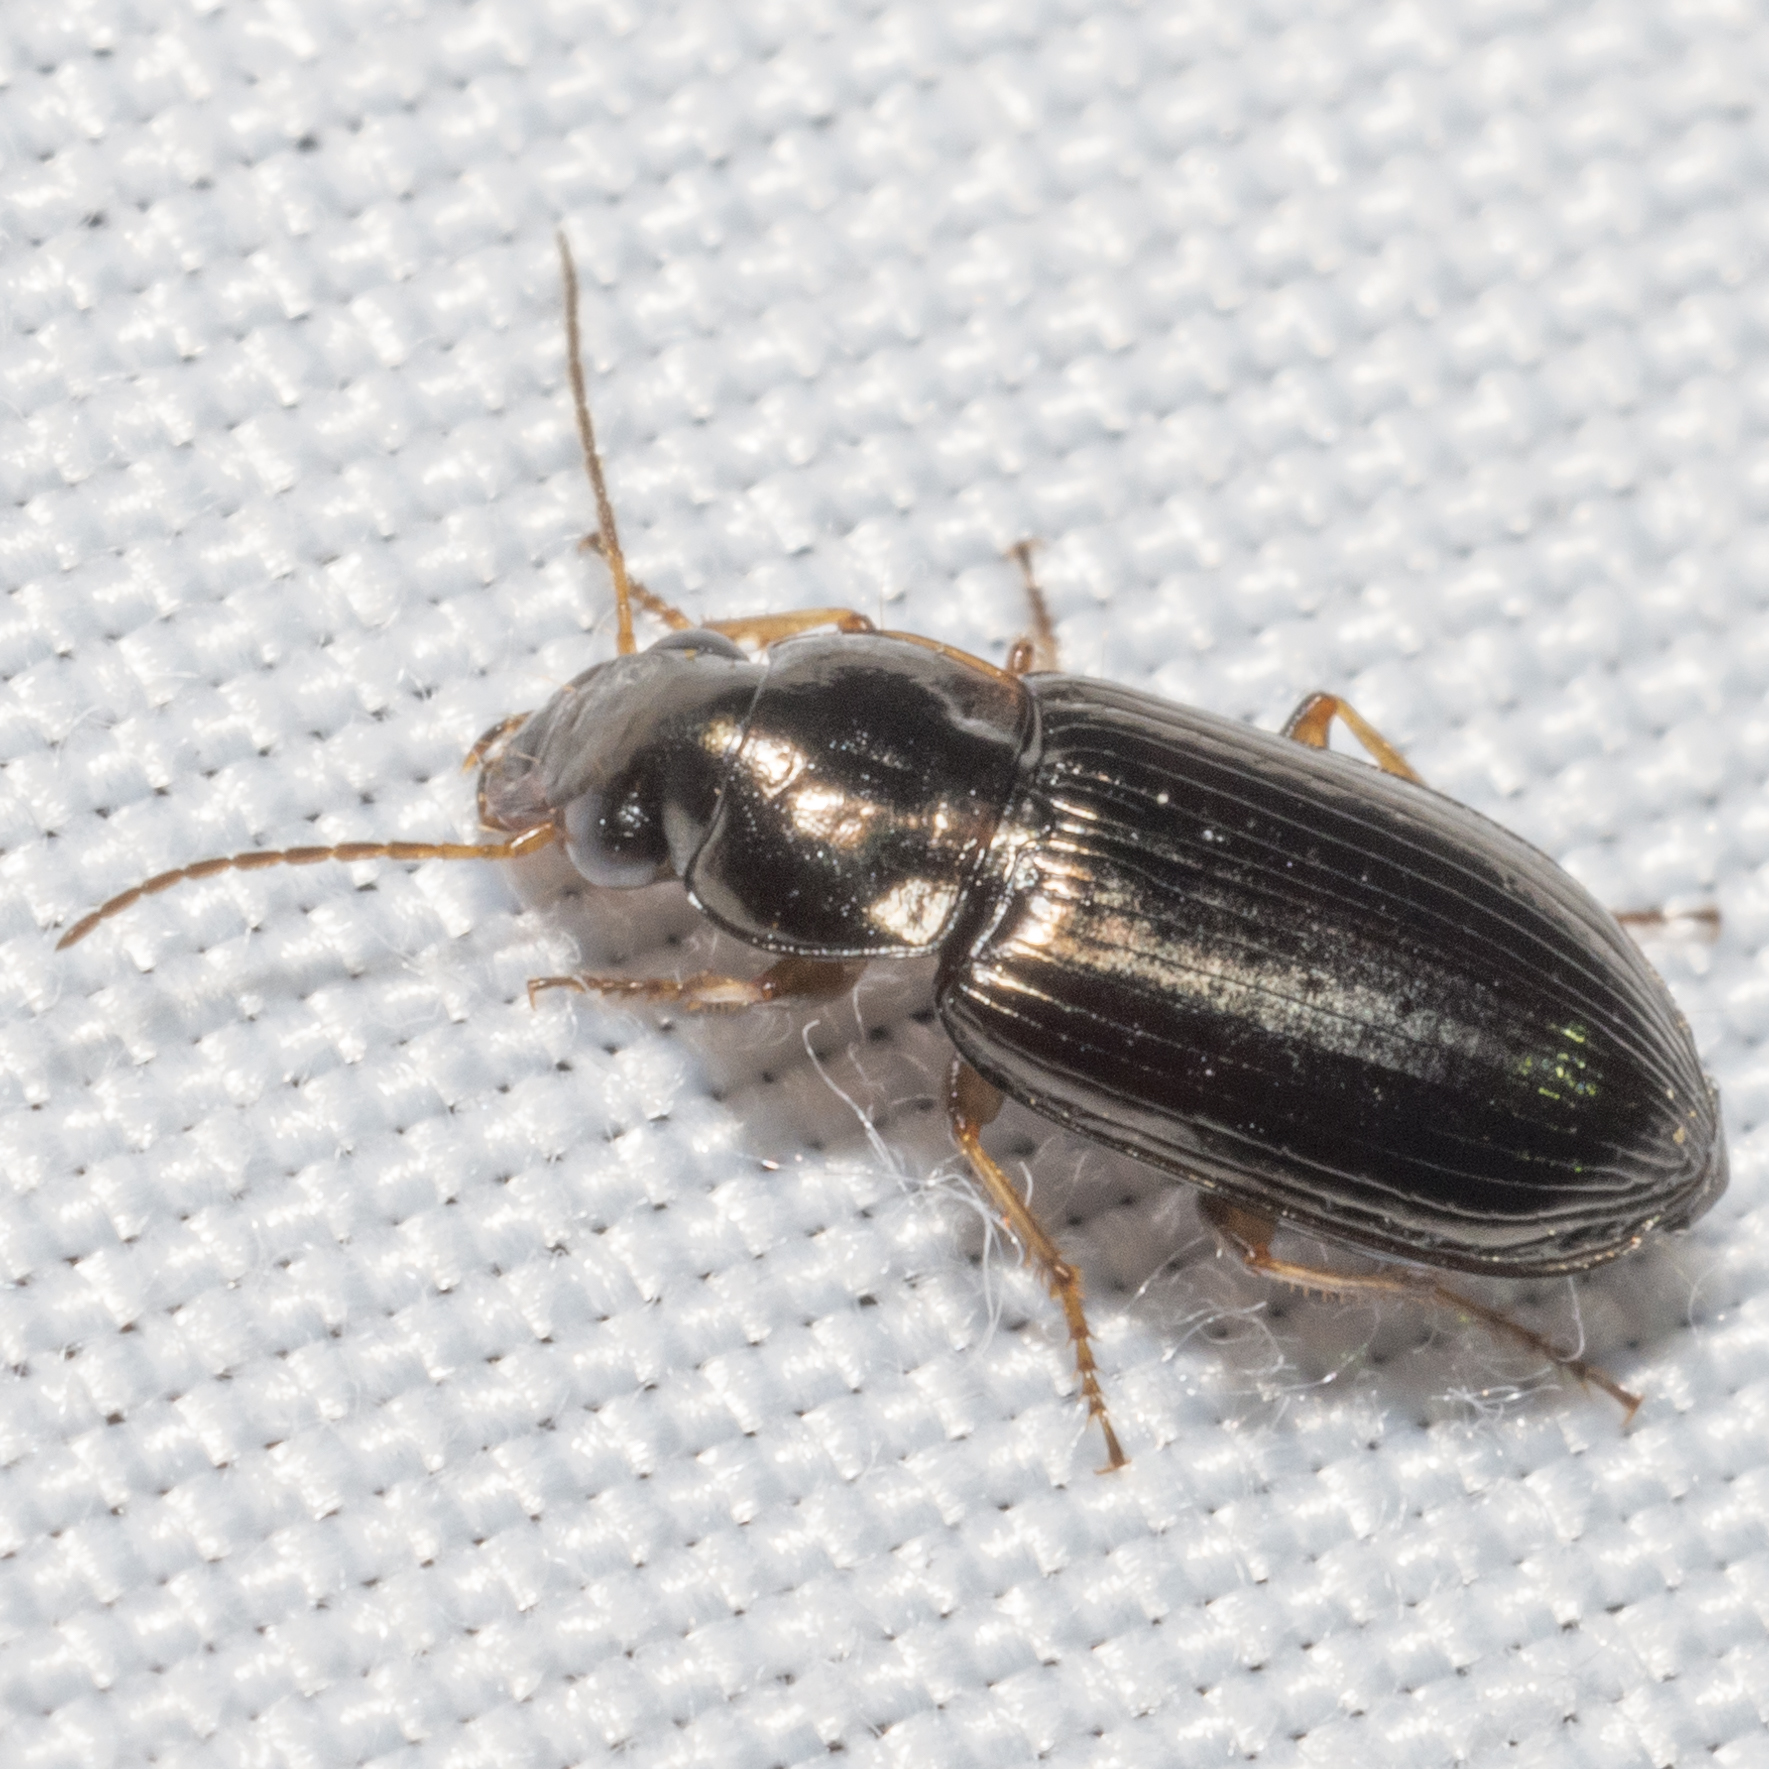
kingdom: Animalia
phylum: Arthropoda
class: Insecta
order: Coleoptera
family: Carabidae
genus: Selenophorus
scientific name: Selenophorus fatuus
